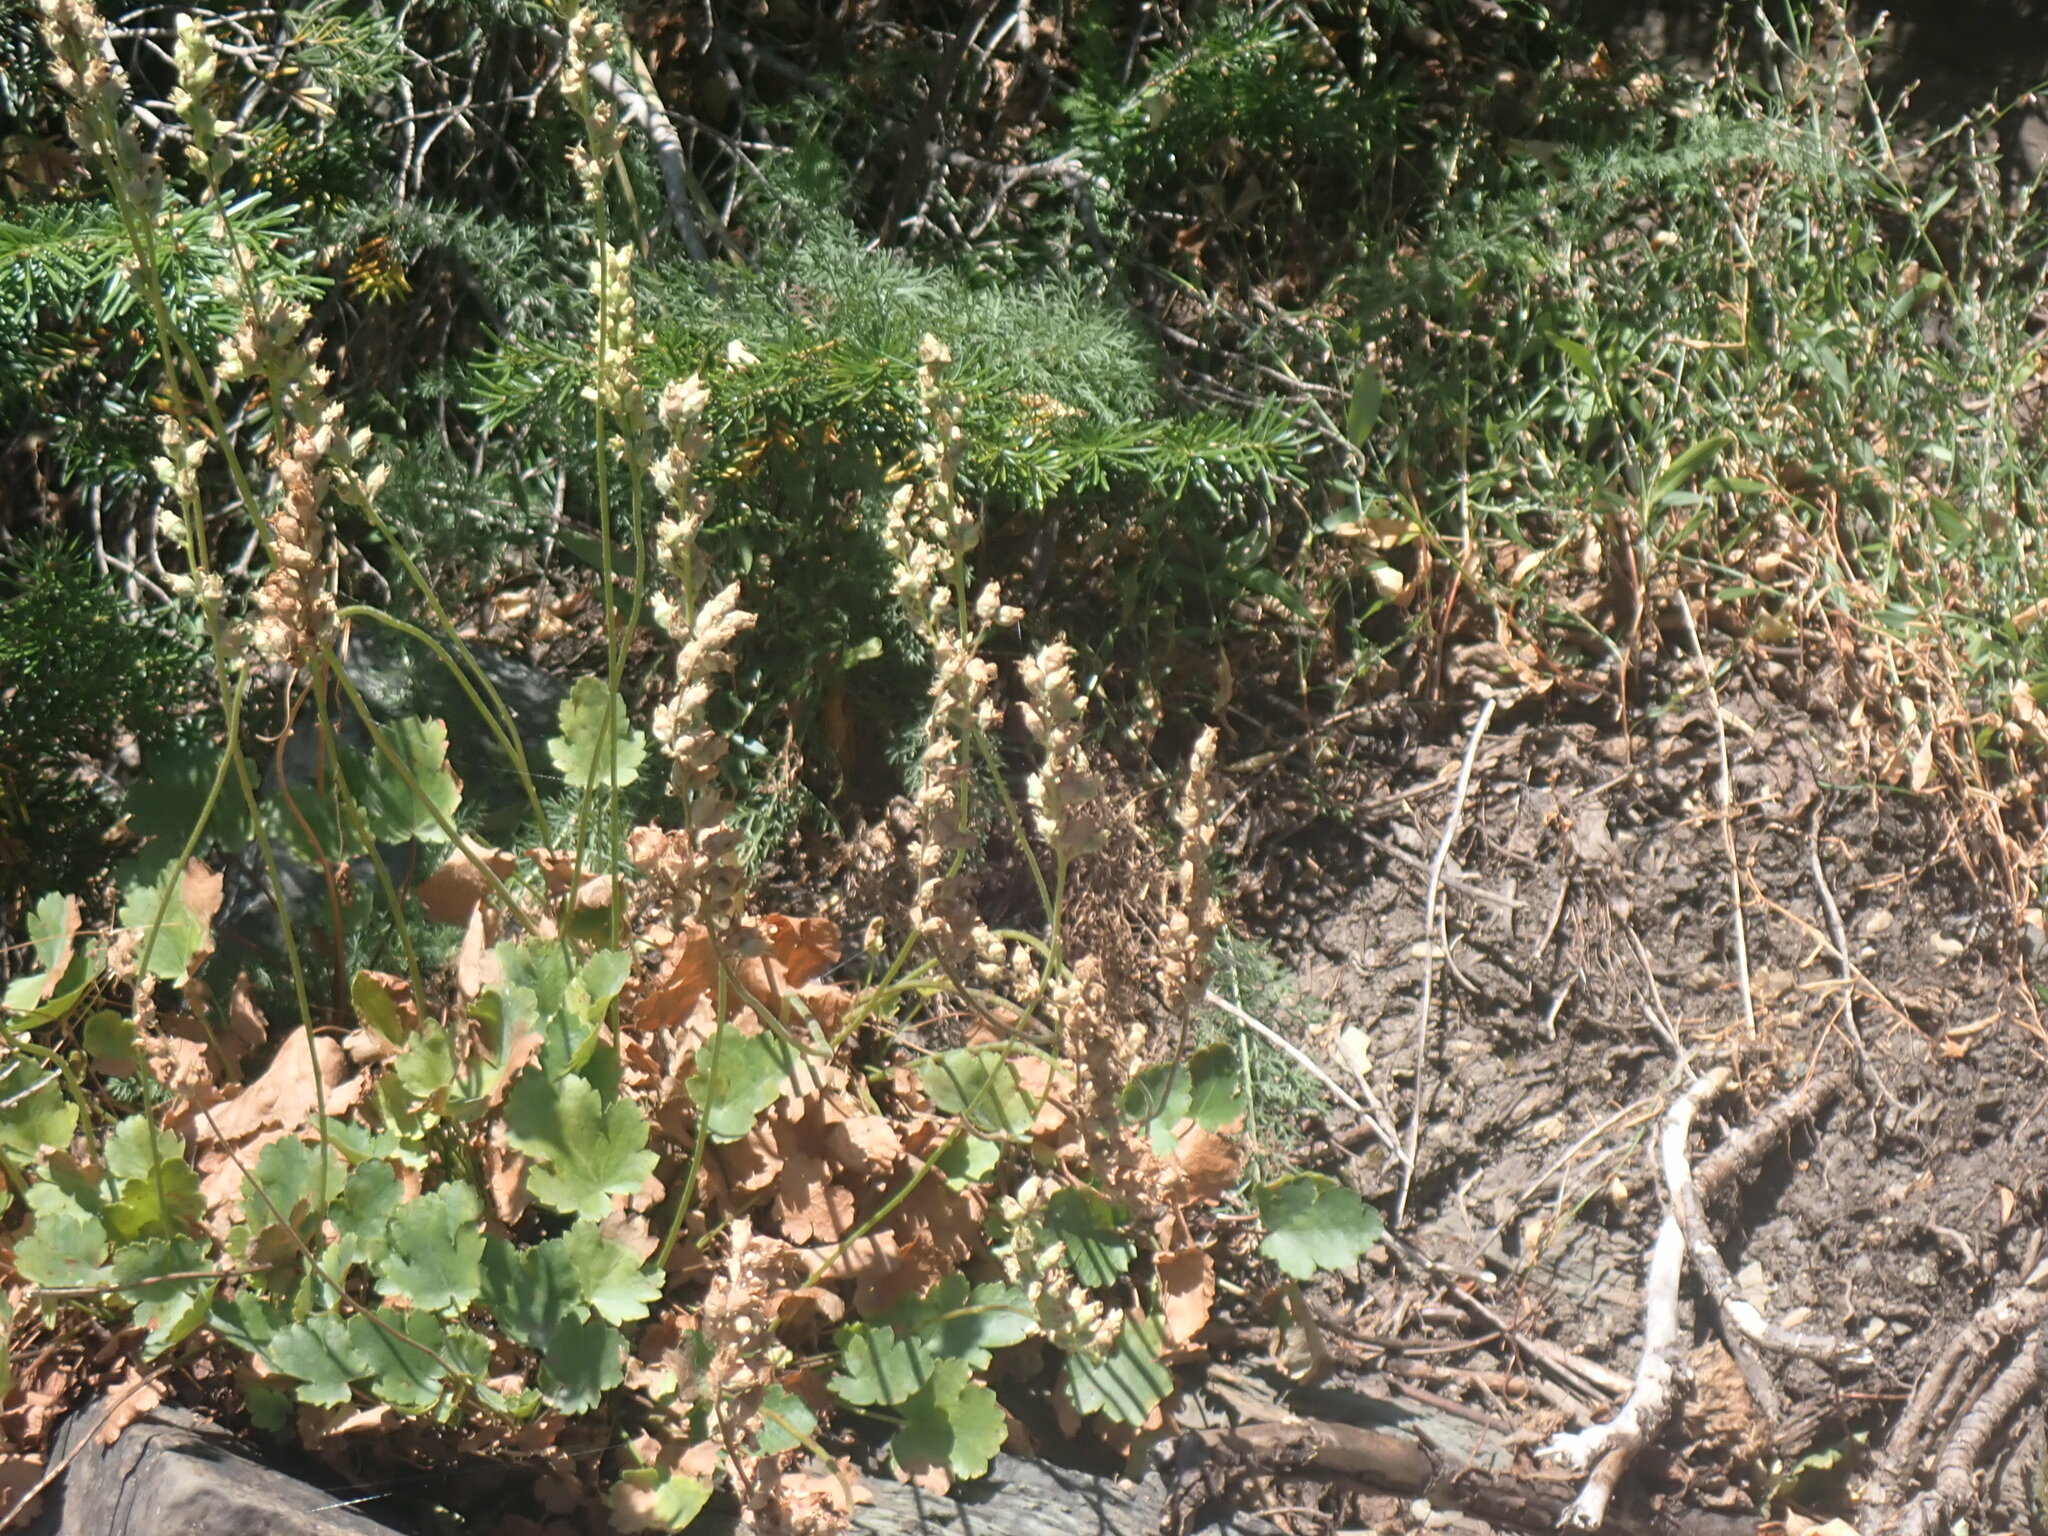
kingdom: Plantae
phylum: Tracheophyta
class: Magnoliopsida
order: Saxifragales
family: Saxifragaceae
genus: Heuchera
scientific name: Heuchera cylindrica
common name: Mat alumroot
